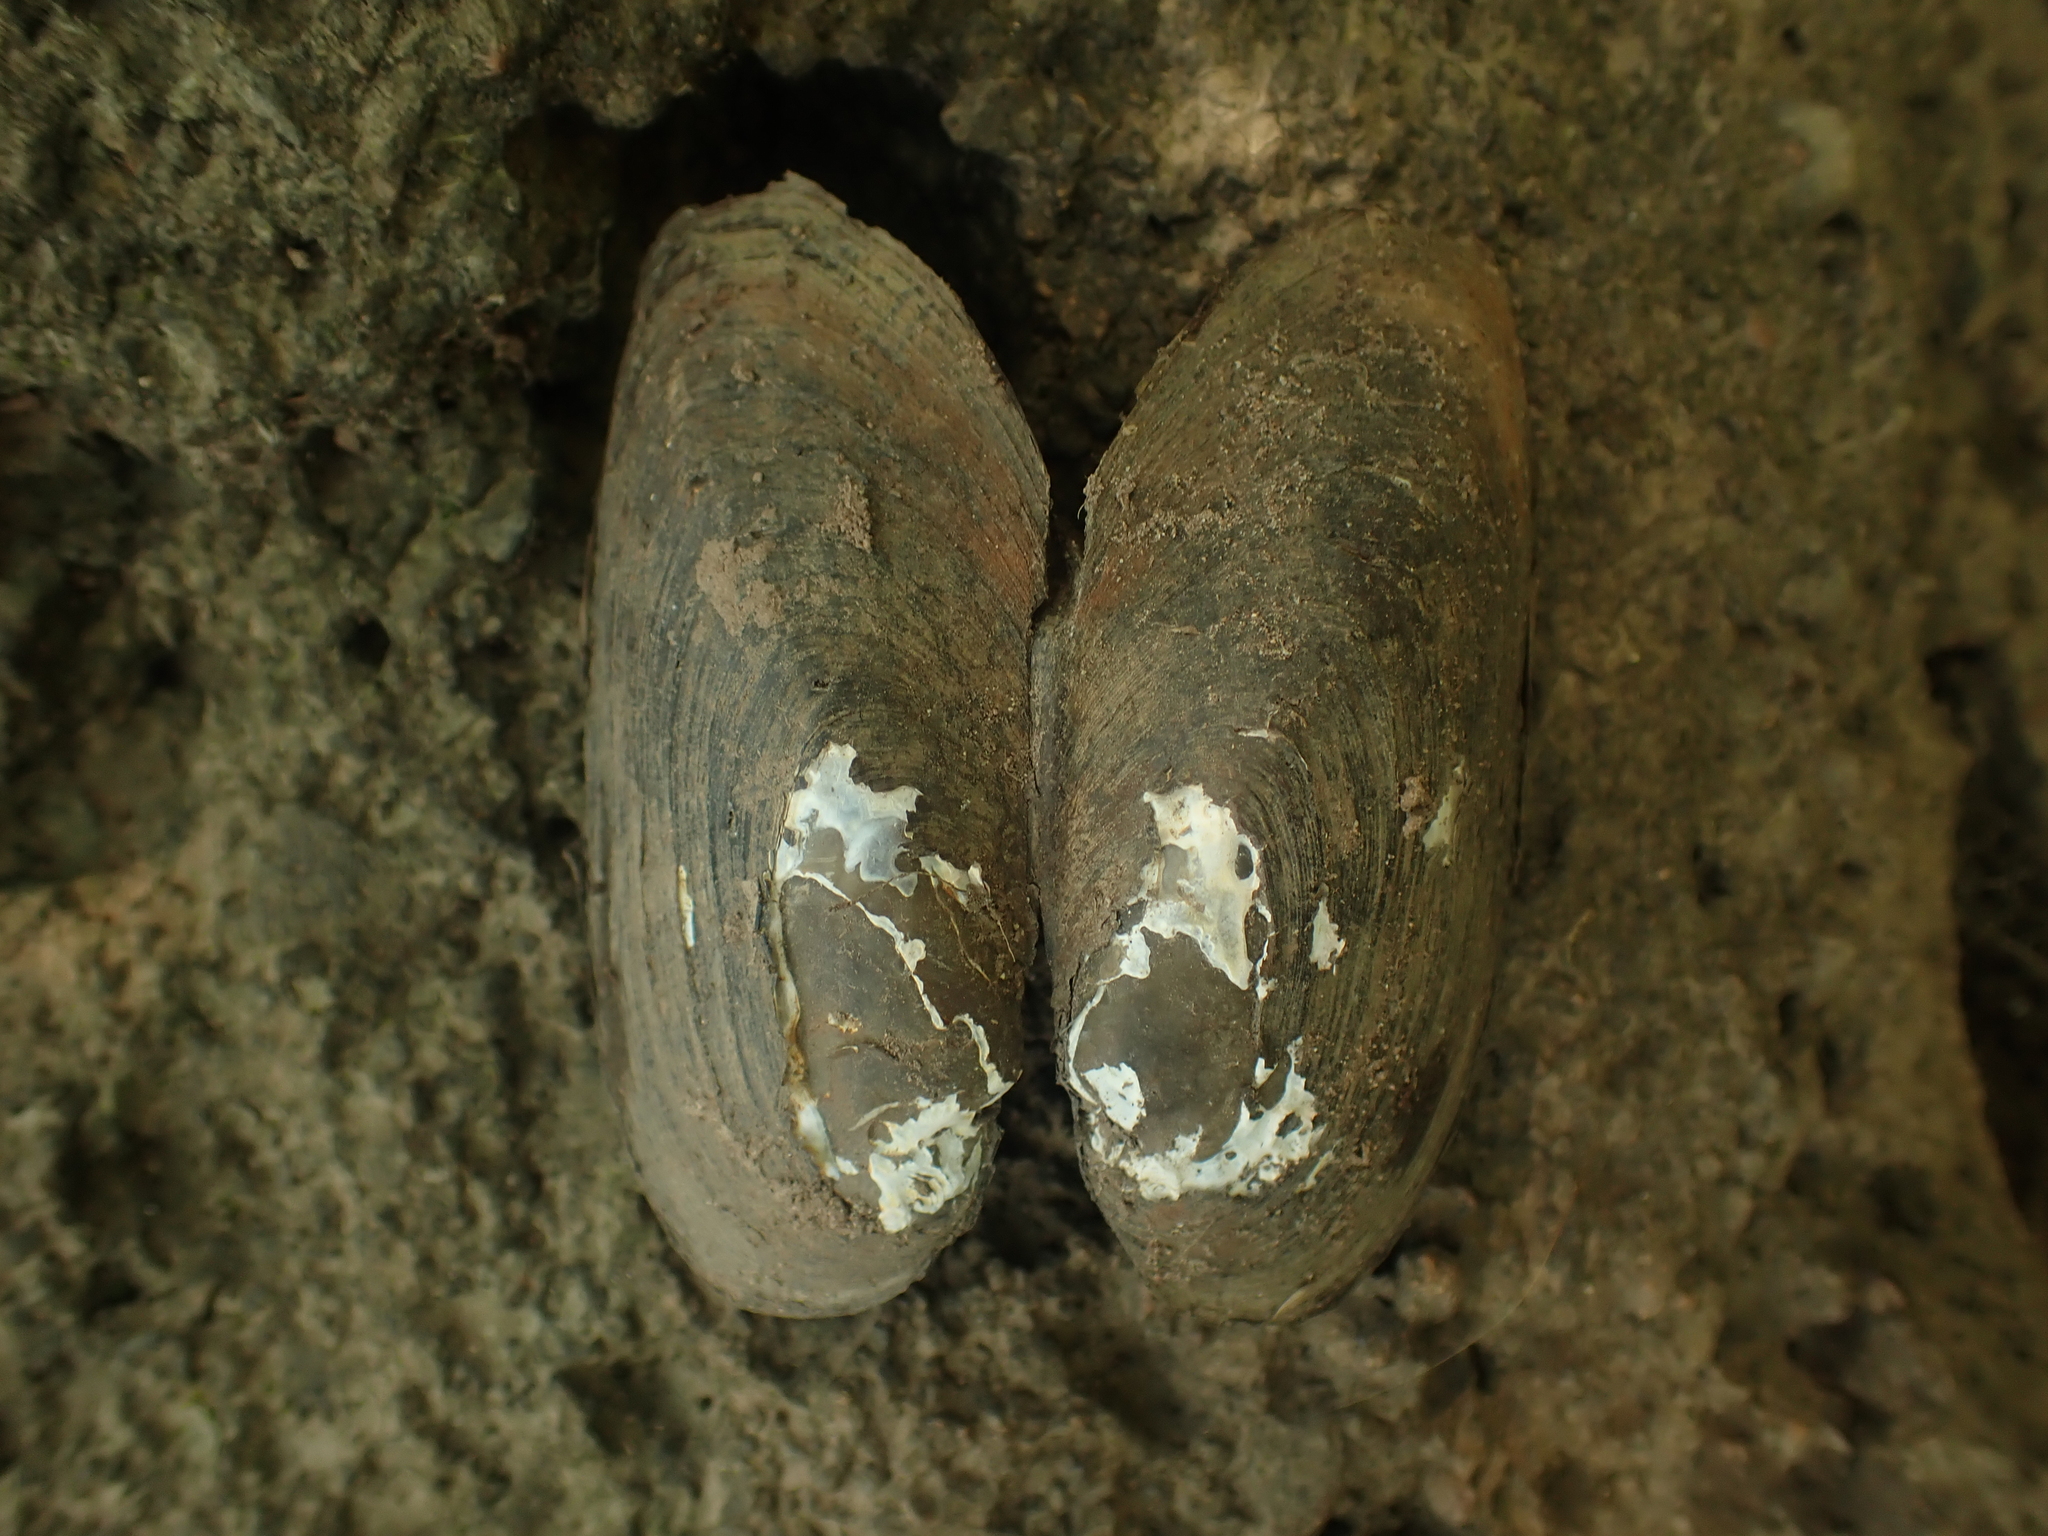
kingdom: Animalia
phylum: Mollusca
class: Bivalvia
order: Unionida
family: Unionidae
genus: Elliptio
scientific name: Elliptio complanata
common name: Eastern elliptio
